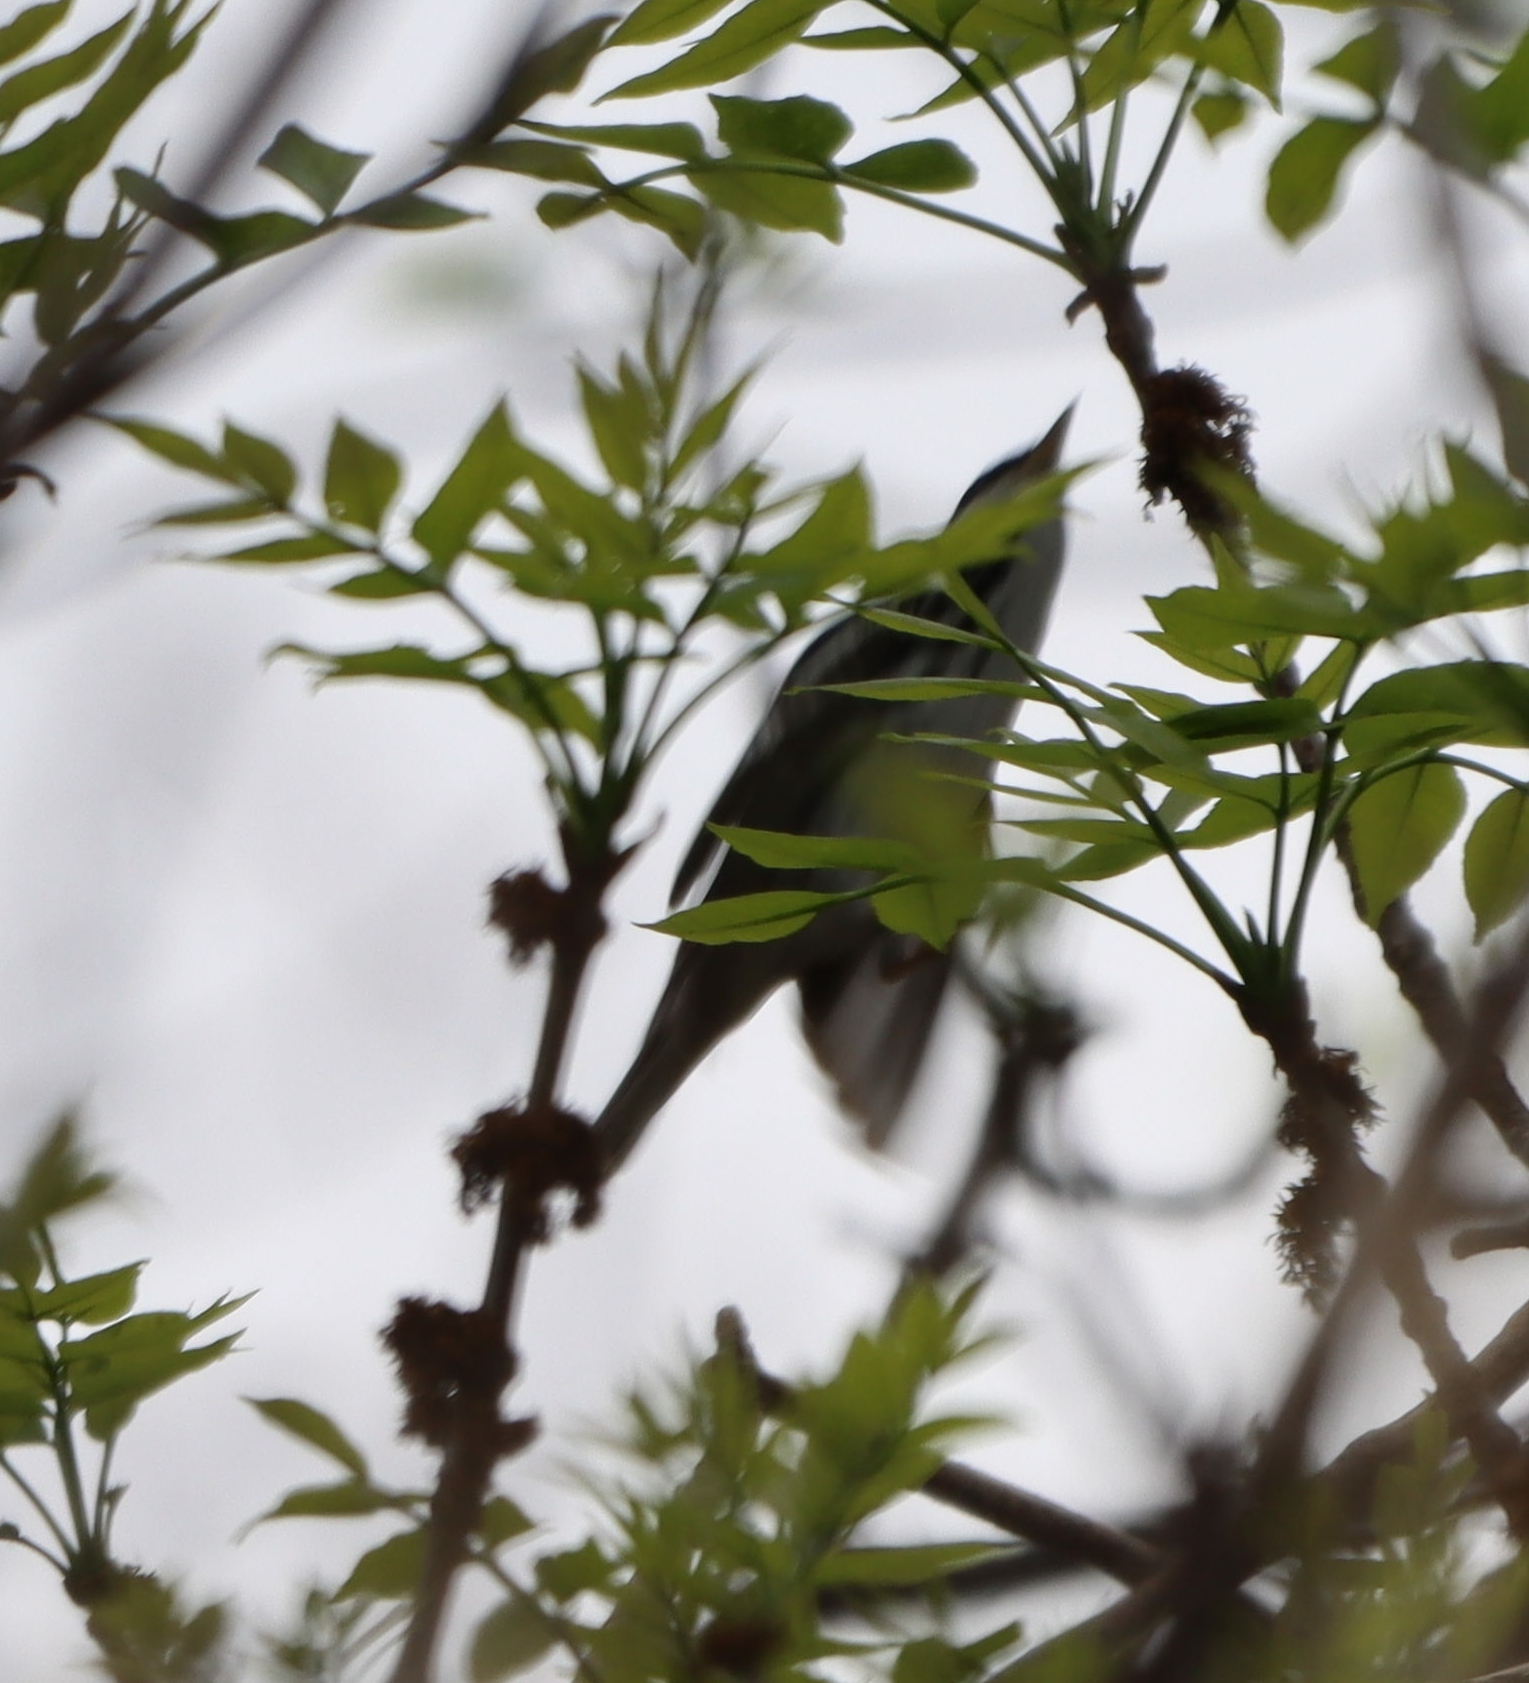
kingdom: Animalia
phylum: Chordata
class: Aves
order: Passeriformes
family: Parulidae
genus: Setophaga
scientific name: Setophaga striata
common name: Blackpoll warbler
